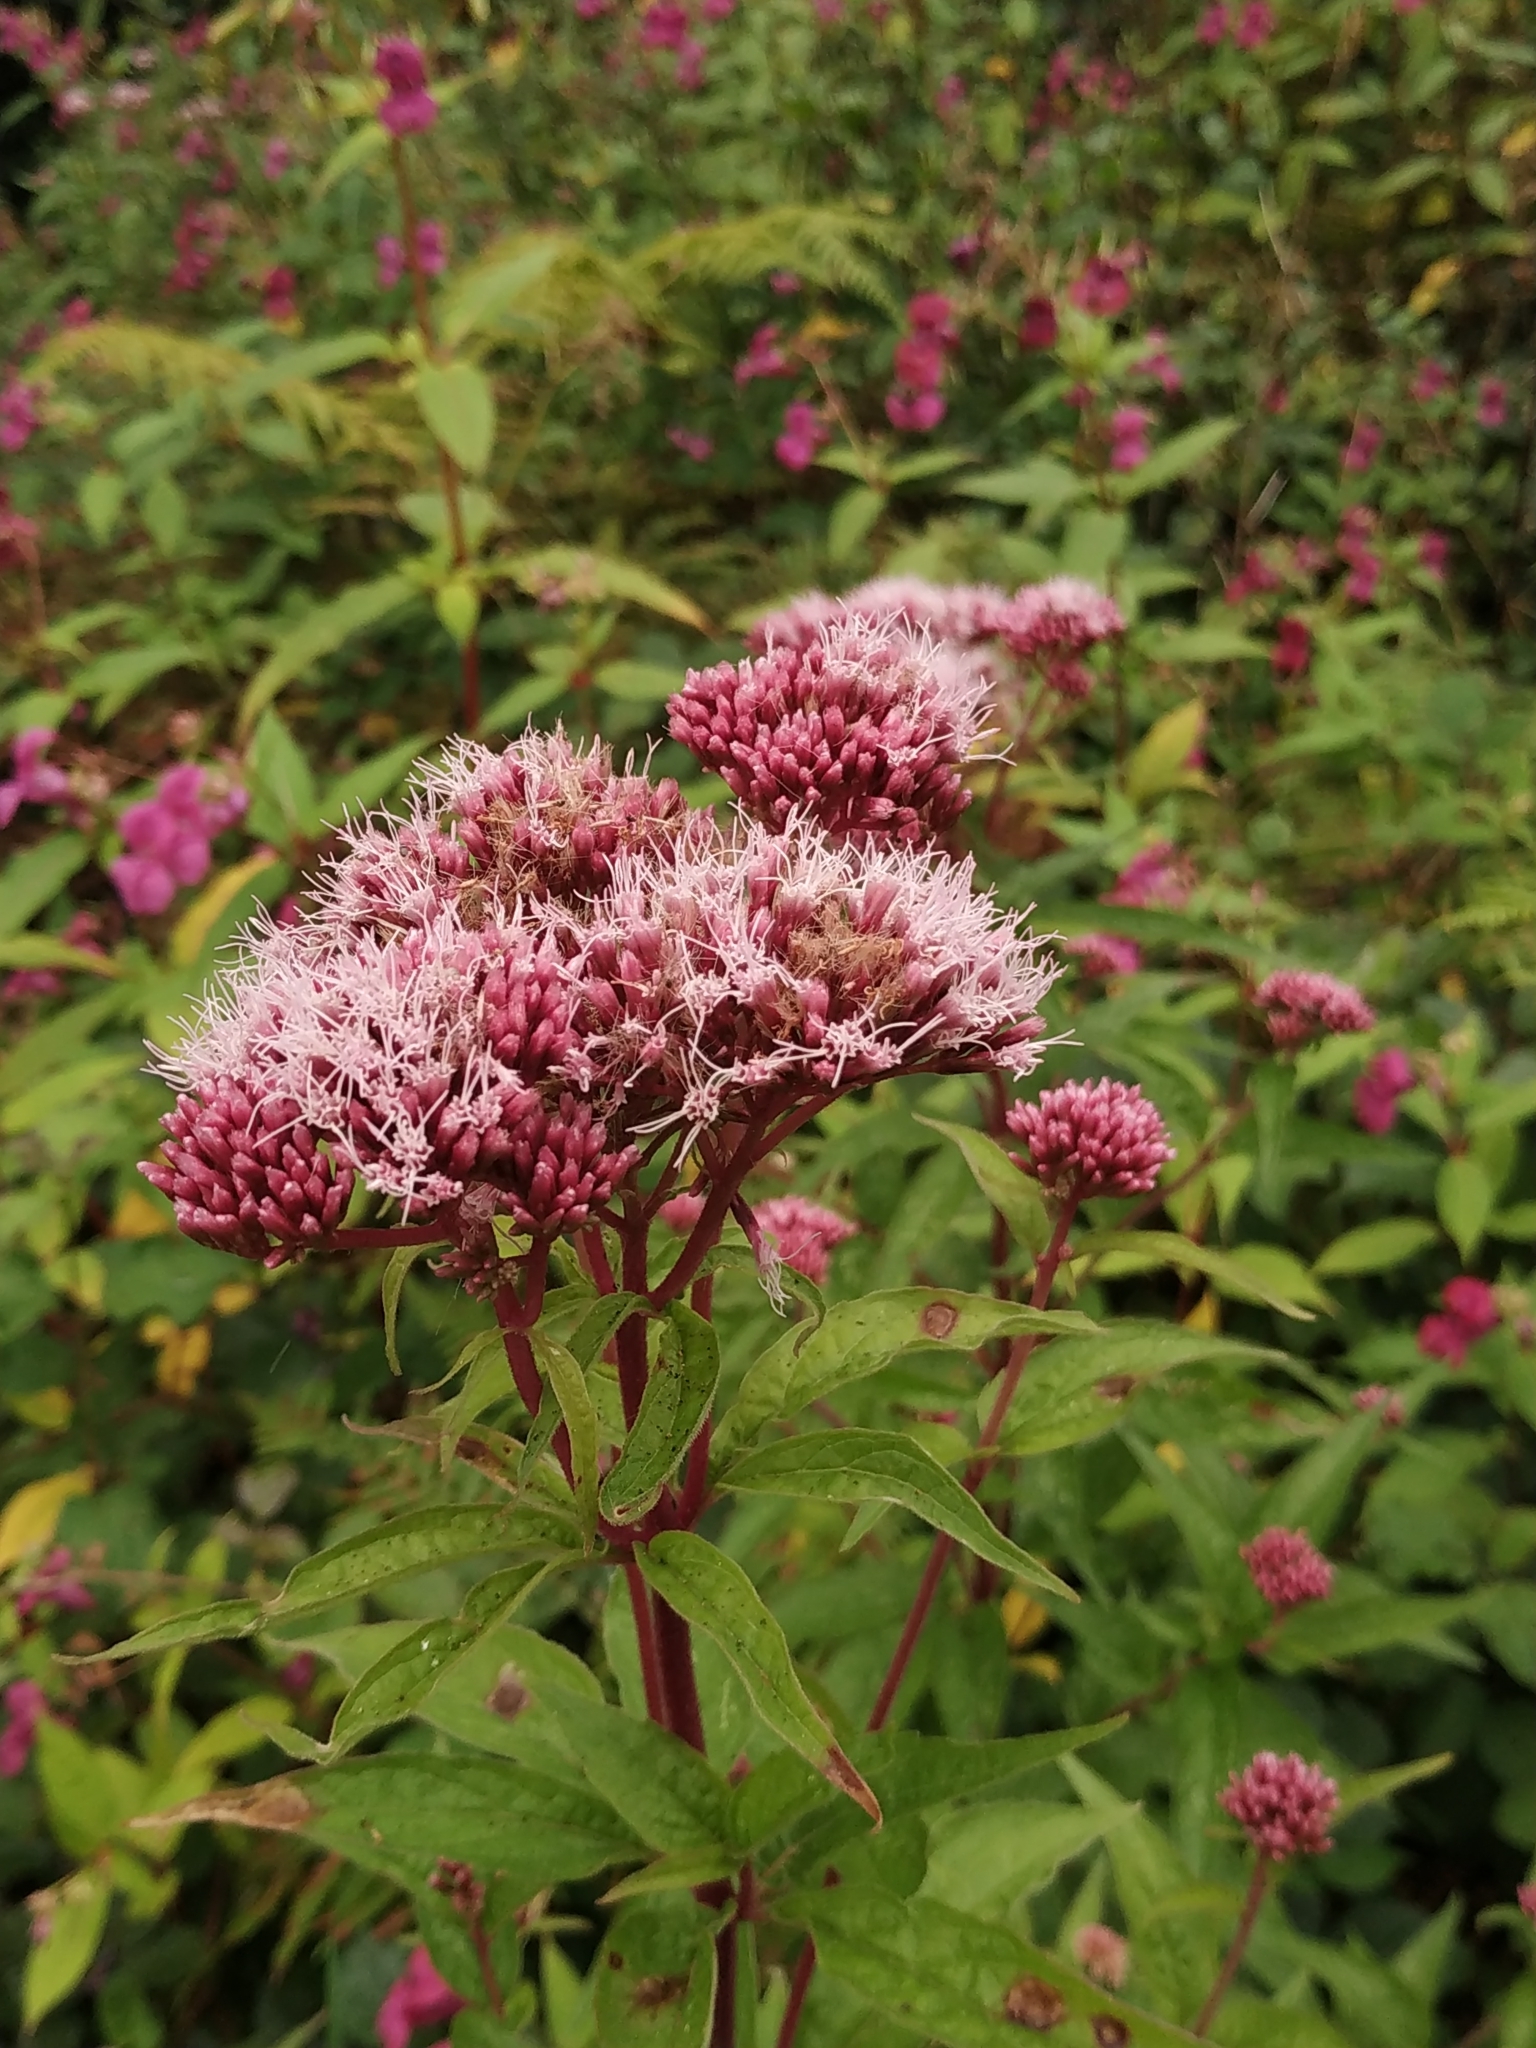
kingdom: Plantae
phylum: Tracheophyta
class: Magnoliopsida
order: Asterales
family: Asteraceae
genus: Eupatorium
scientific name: Eupatorium cannabinum
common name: Hemp-agrimony
